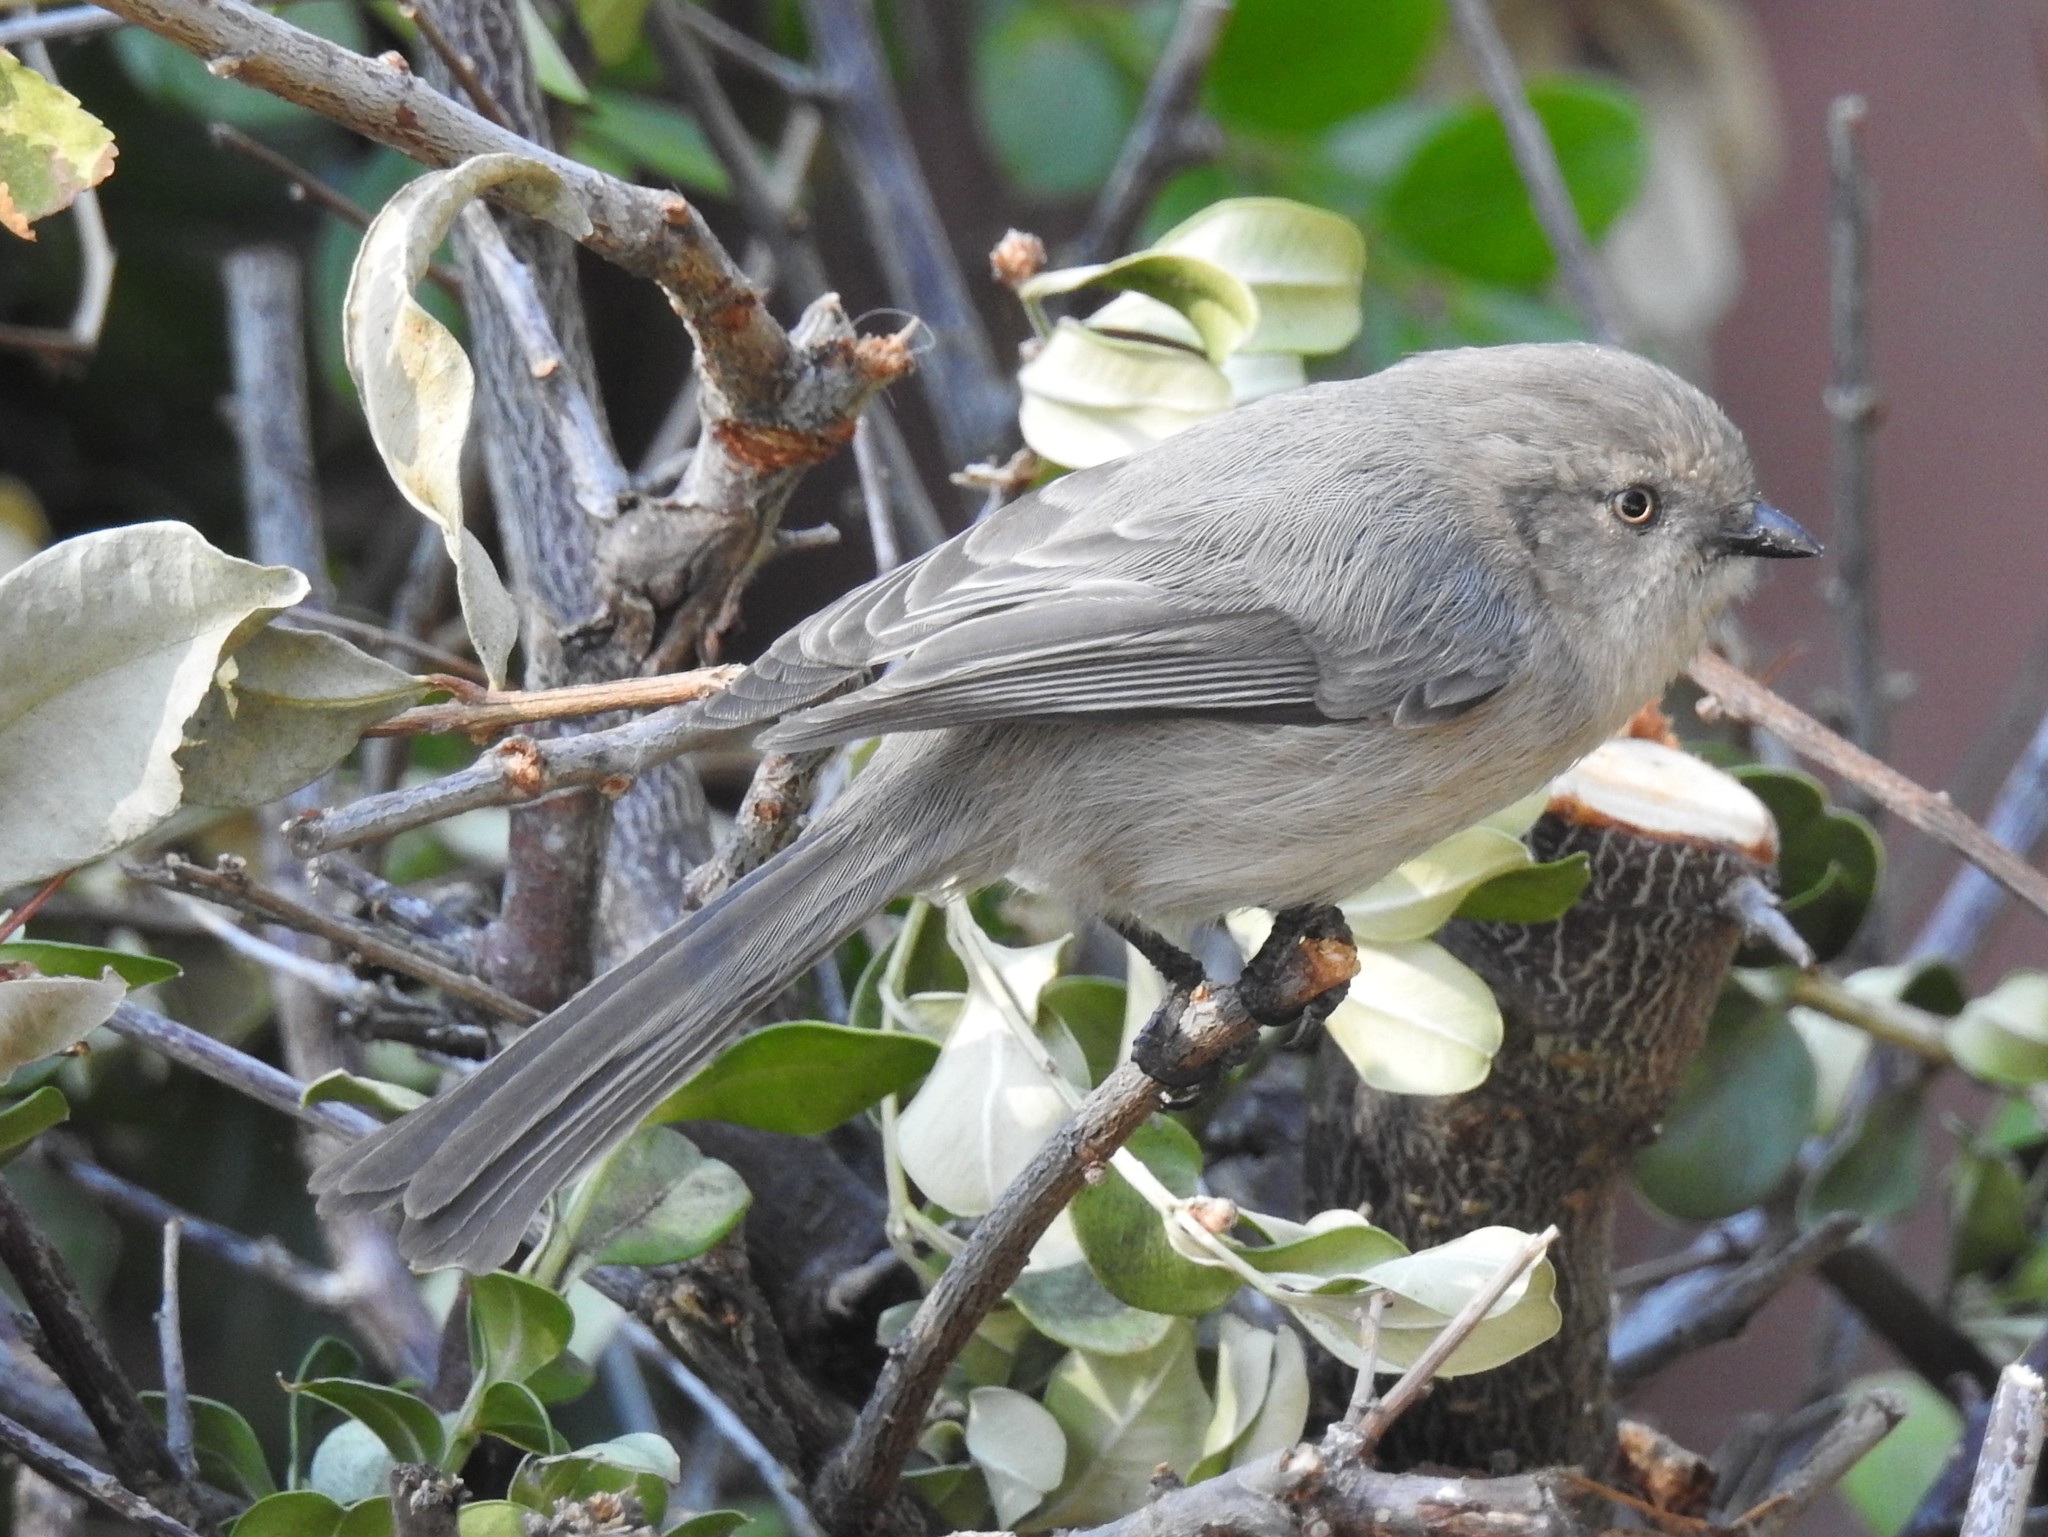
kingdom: Animalia
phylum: Chordata
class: Aves
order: Passeriformes
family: Aegithalidae
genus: Psaltriparus
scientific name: Psaltriparus minimus
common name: American bushtit
